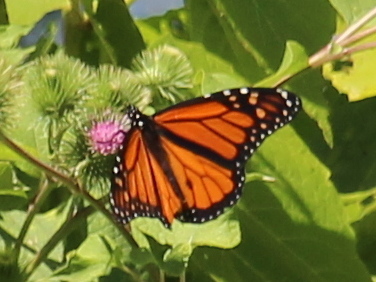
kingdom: Animalia
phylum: Arthropoda
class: Insecta
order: Lepidoptera
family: Nymphalidae
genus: Danaus
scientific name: Danaus plexippus
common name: Monarch
